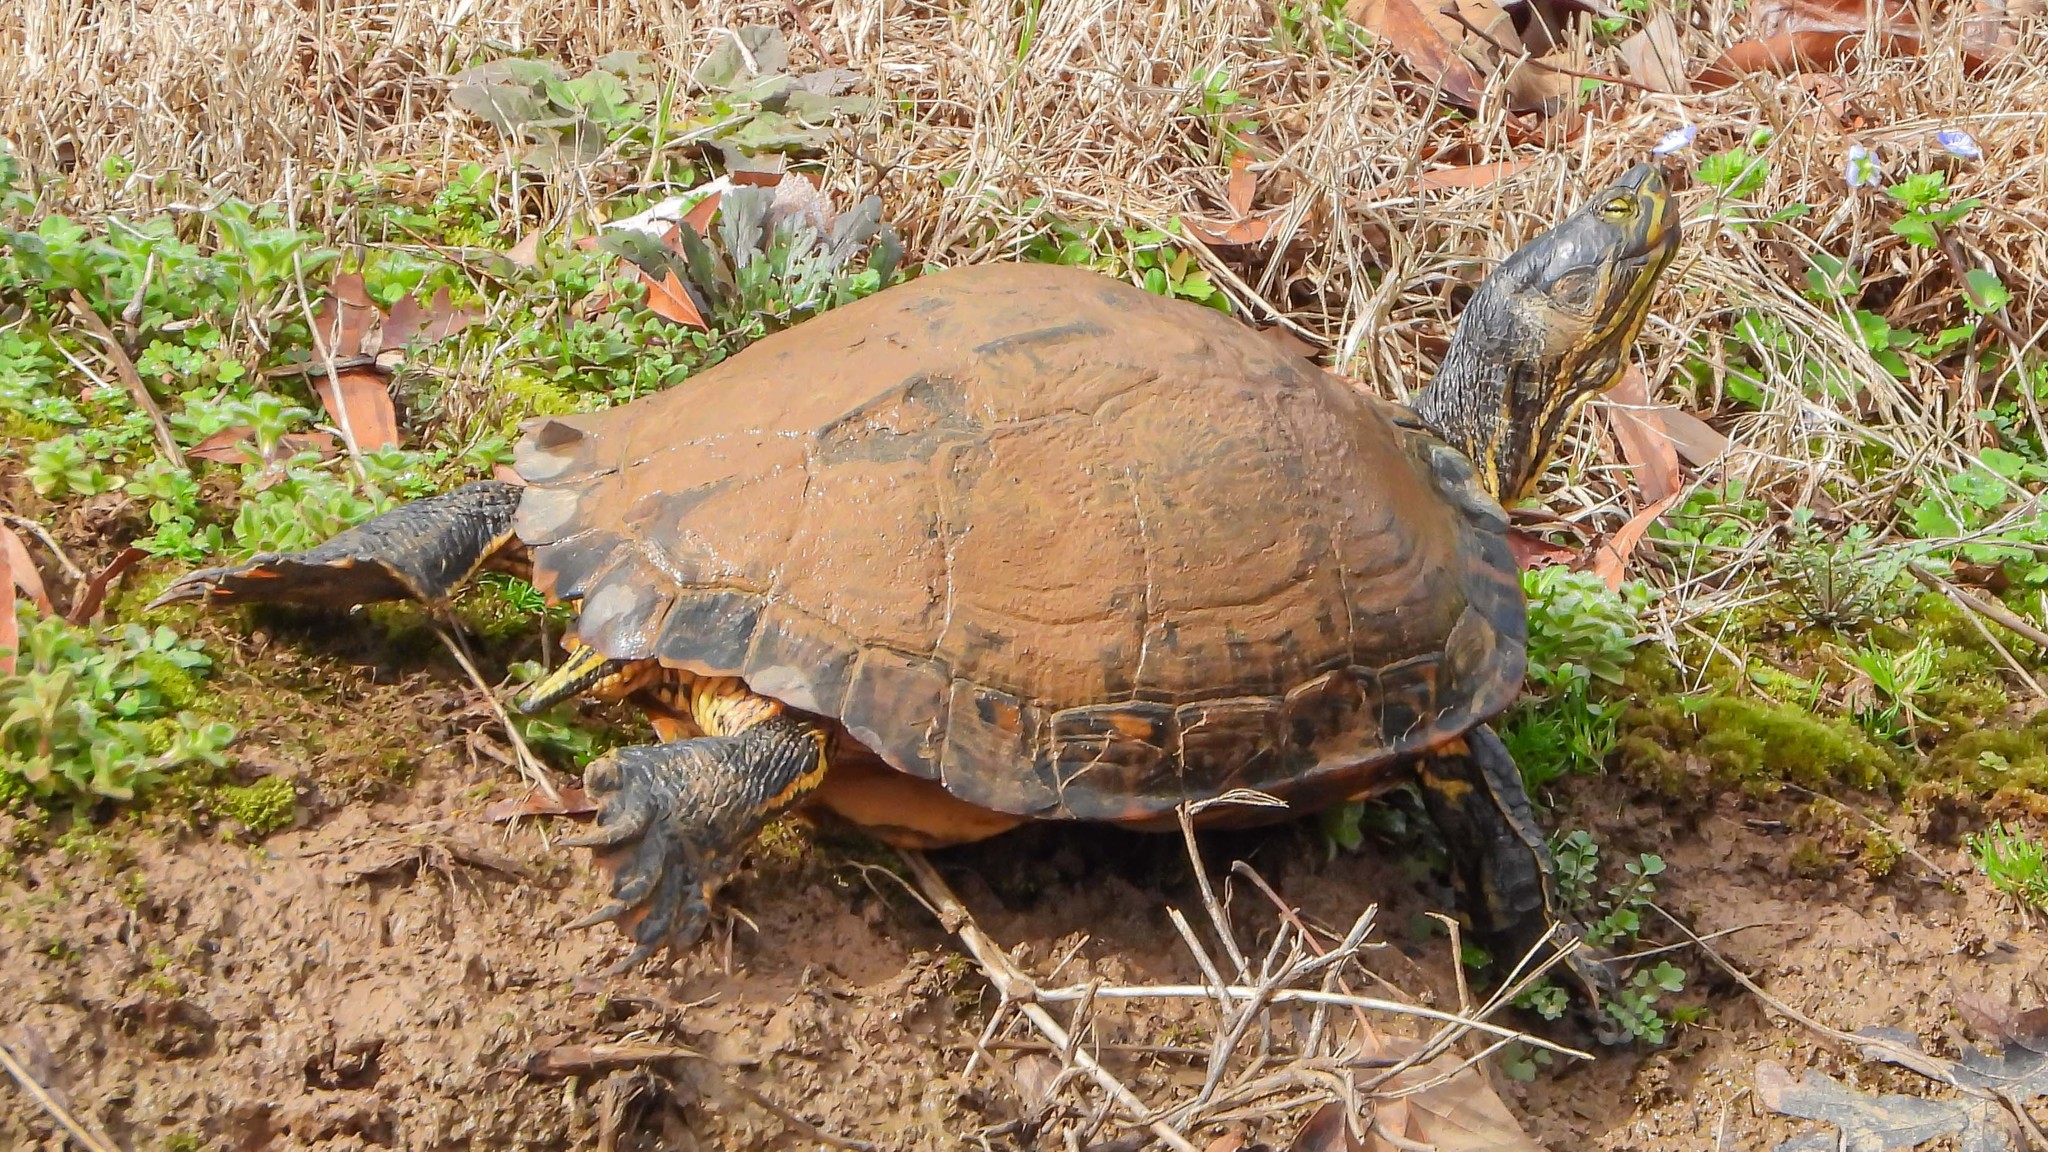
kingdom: Animalia
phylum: Chordata
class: Testudines
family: Emydidae
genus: Trachemys
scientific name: Trachemys scripta
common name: Slider
